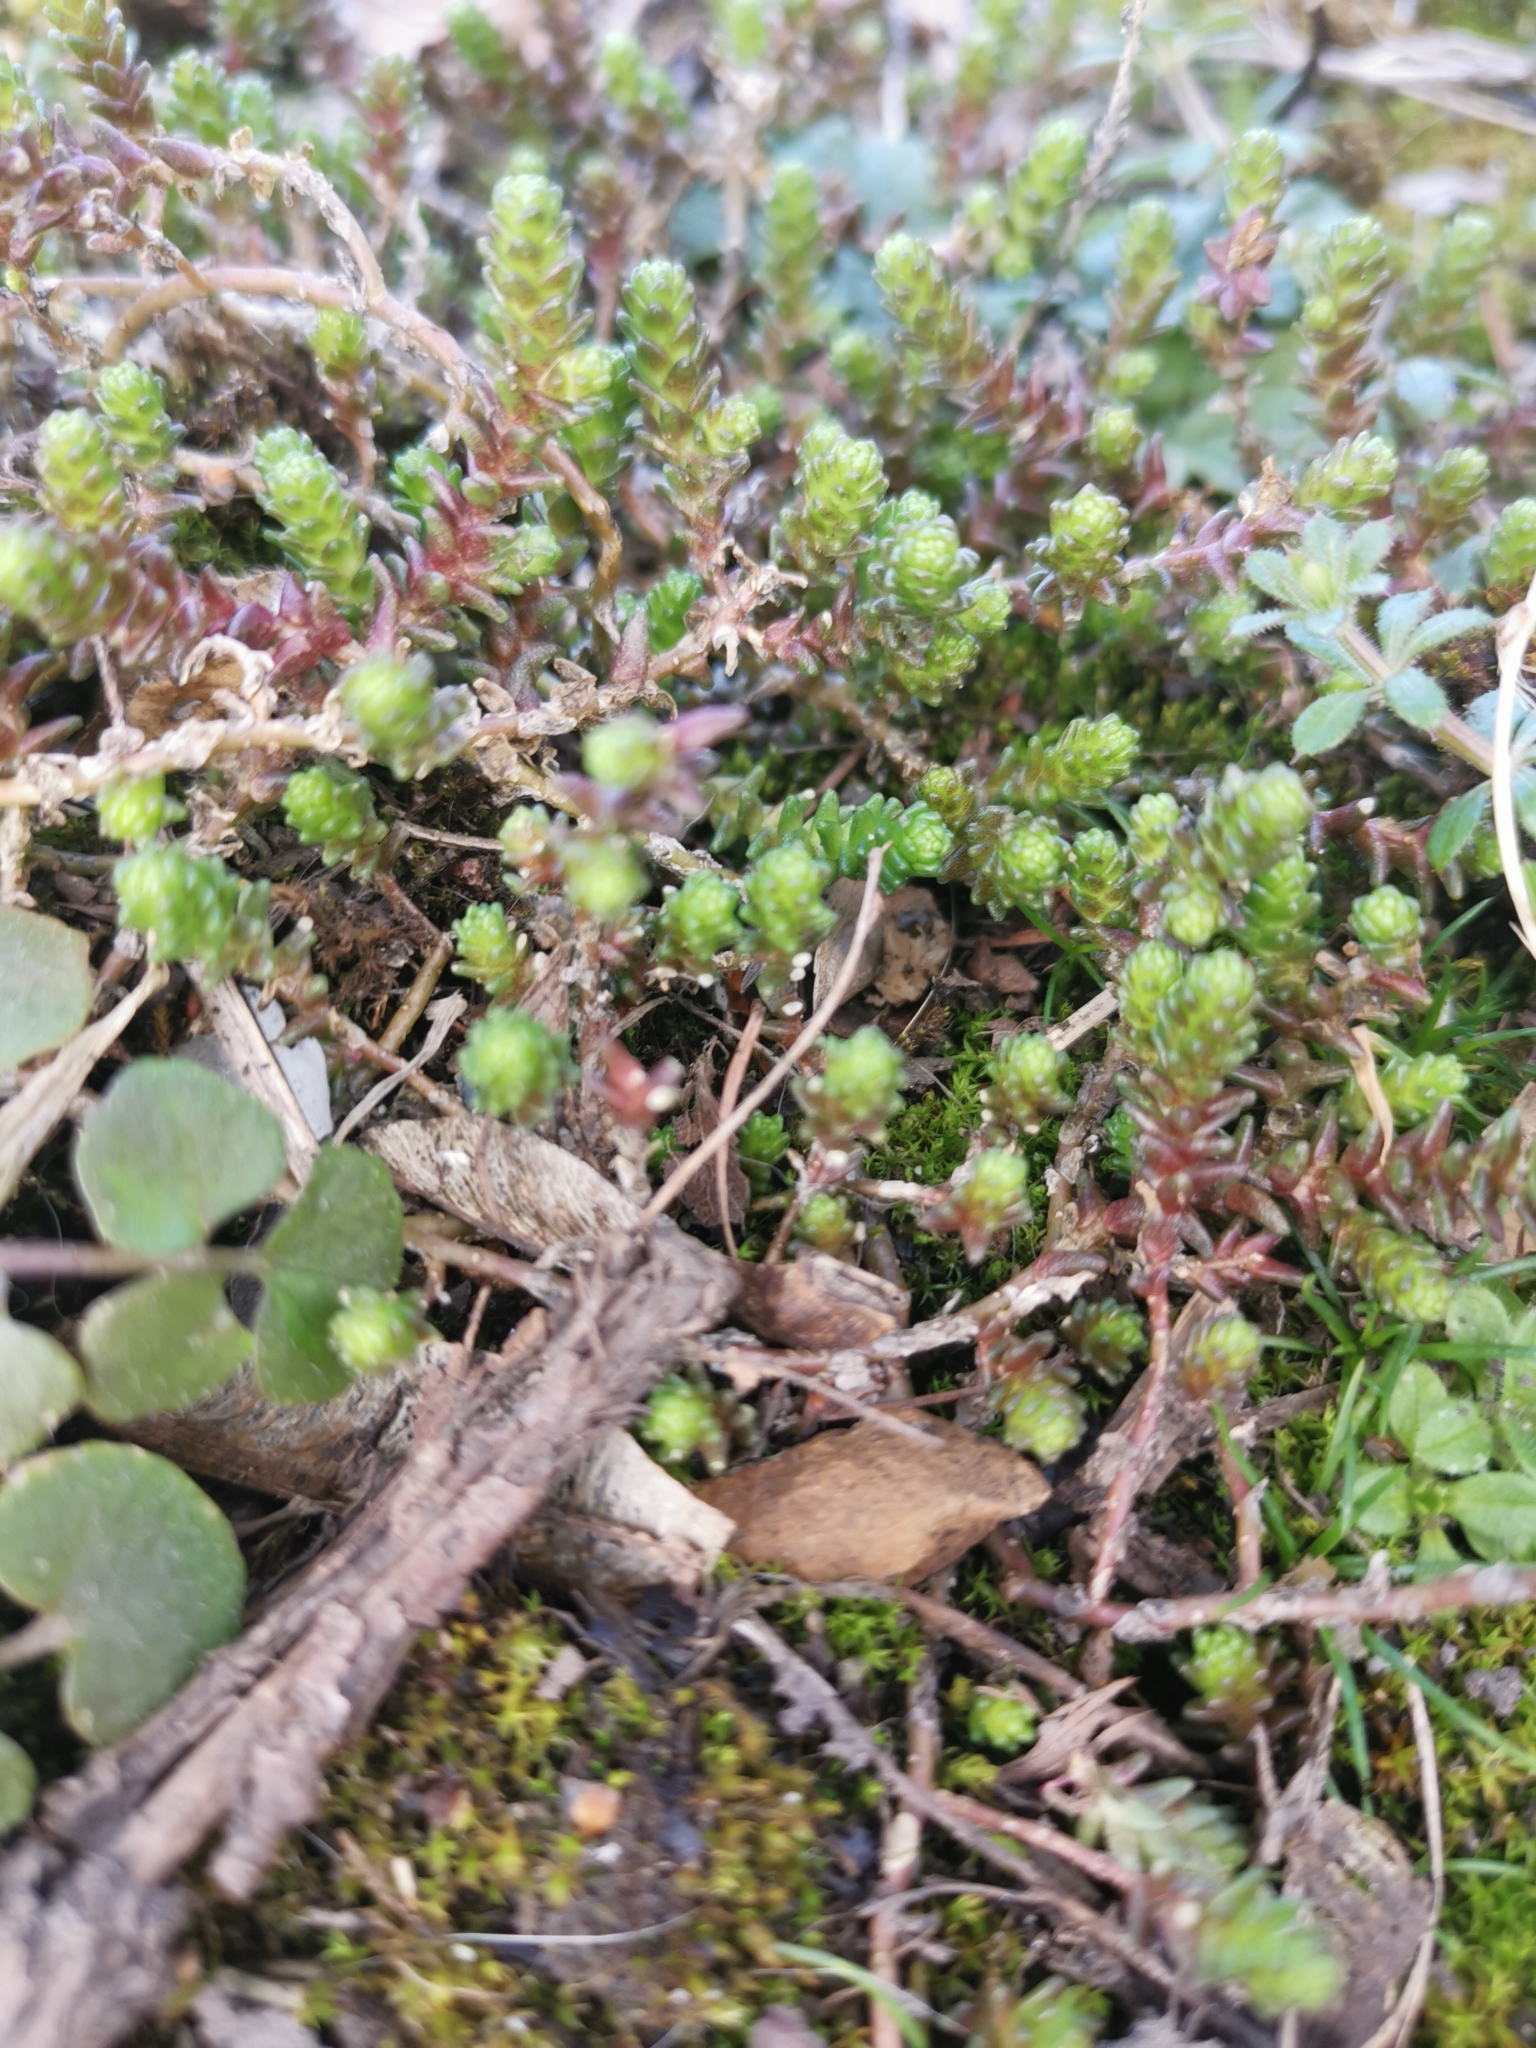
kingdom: Plantae
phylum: Tracheophyta
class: Magnoliopsida
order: Saxifragales
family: Crassulaceae
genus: Sedum
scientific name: Sedum acre
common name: Biting stonecrop
